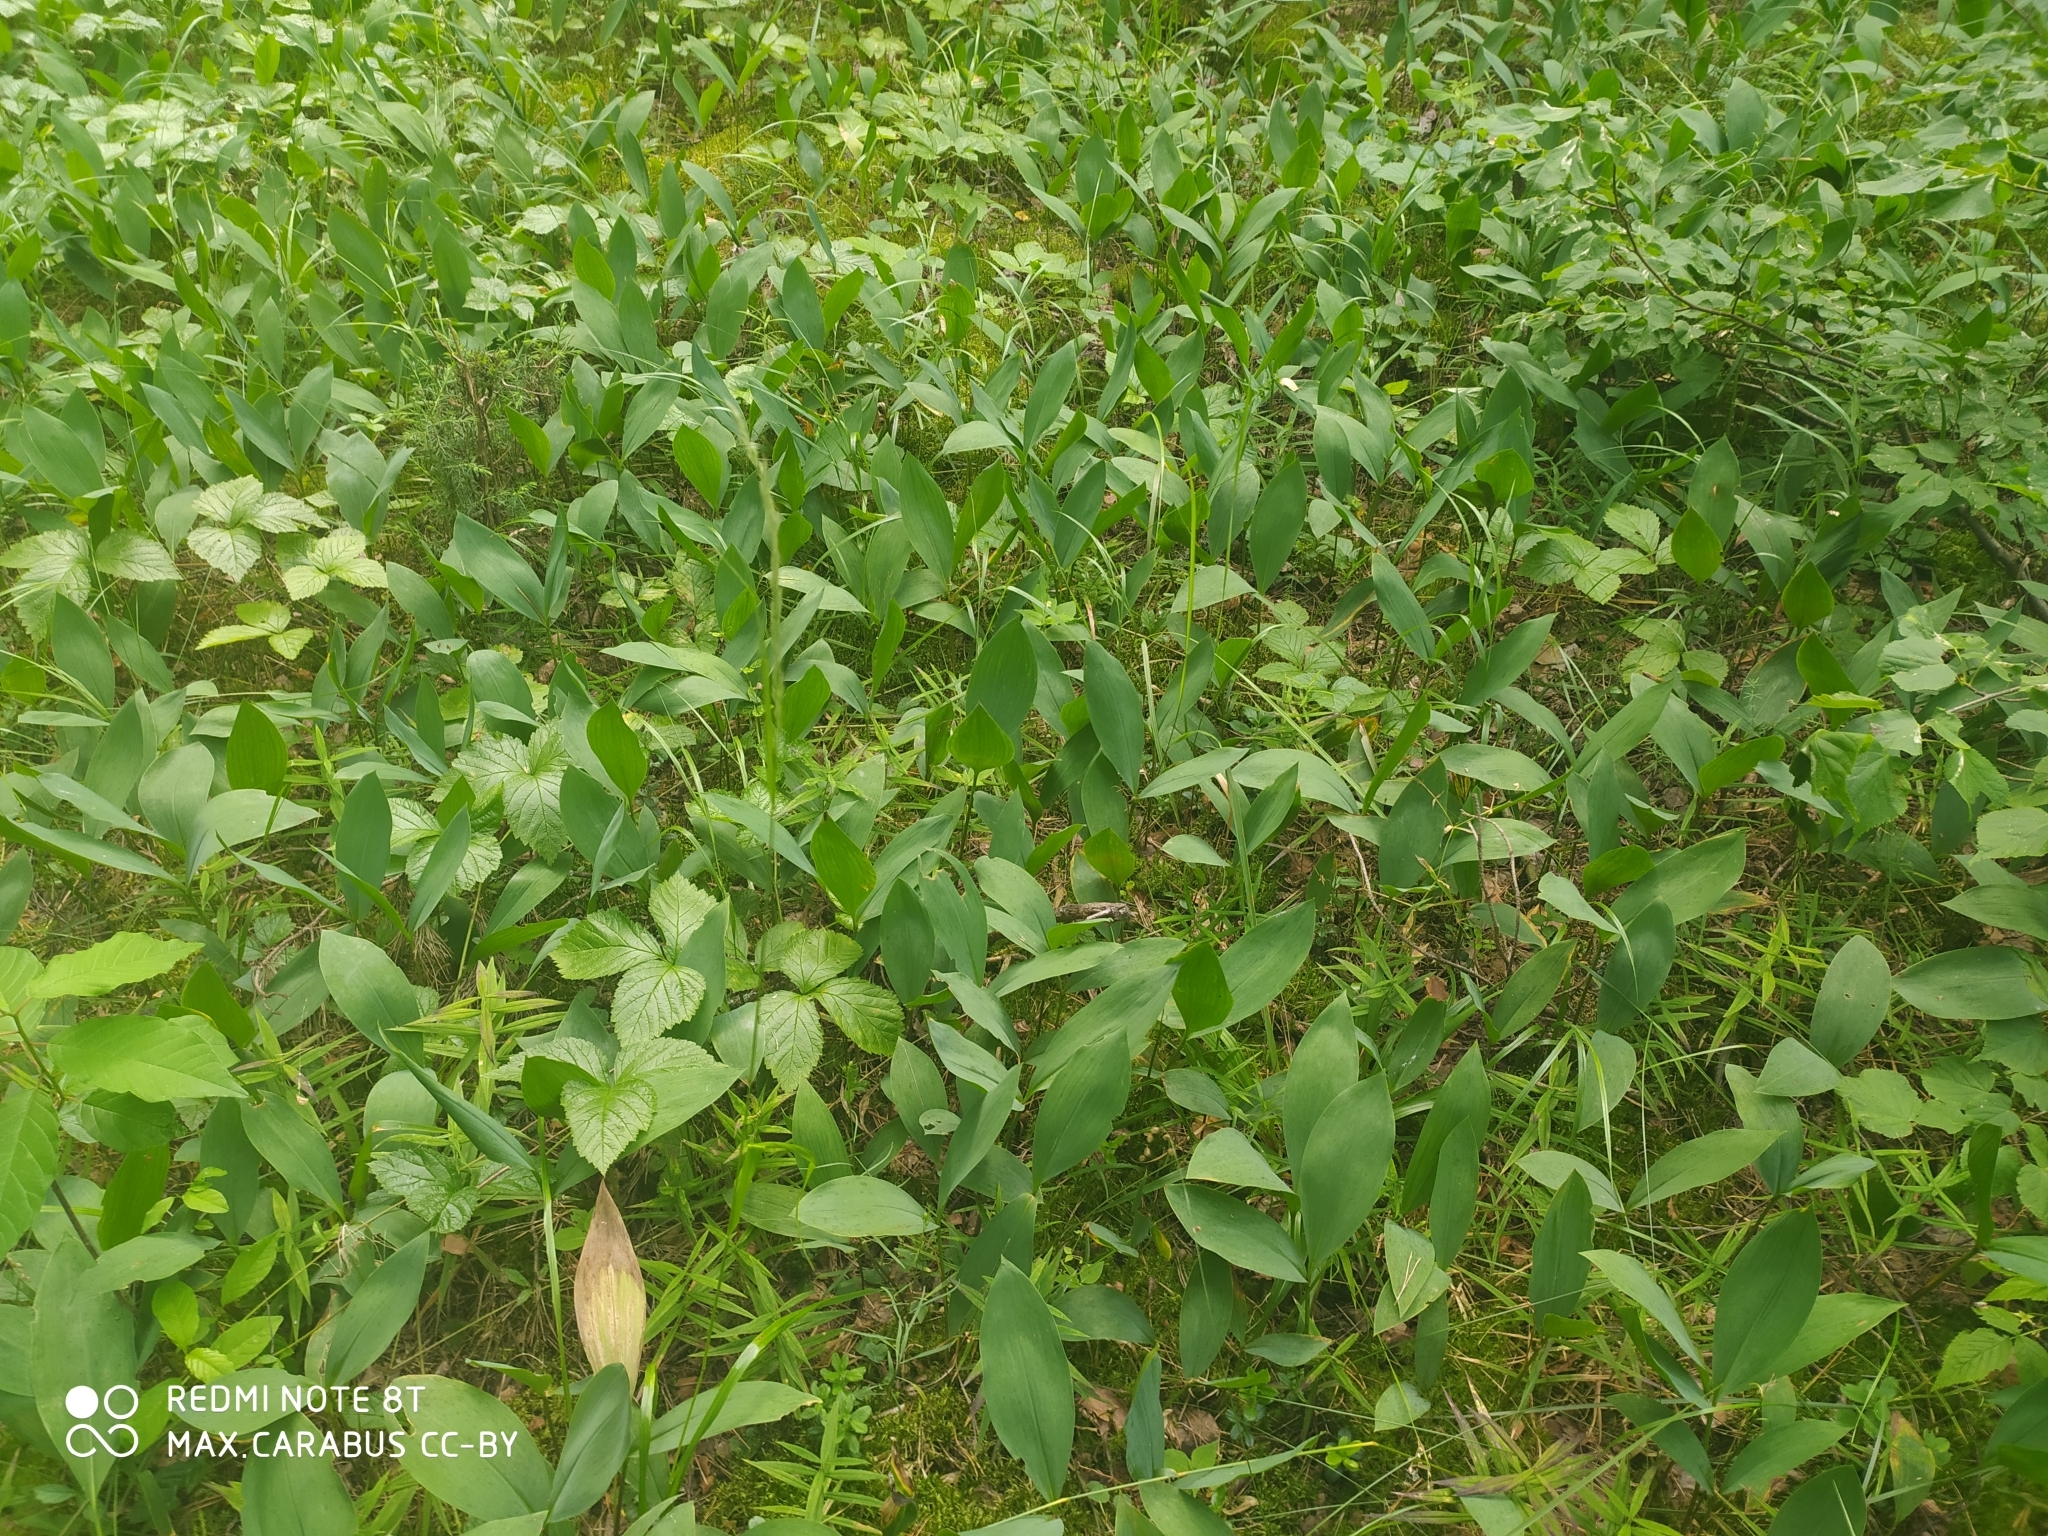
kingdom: Plantae
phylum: Tracheophyta
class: Liliopsida
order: Asparagales
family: Asparagaceae
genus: Convallaria
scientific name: Convallaria majalis
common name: Lily-of-the-valley
